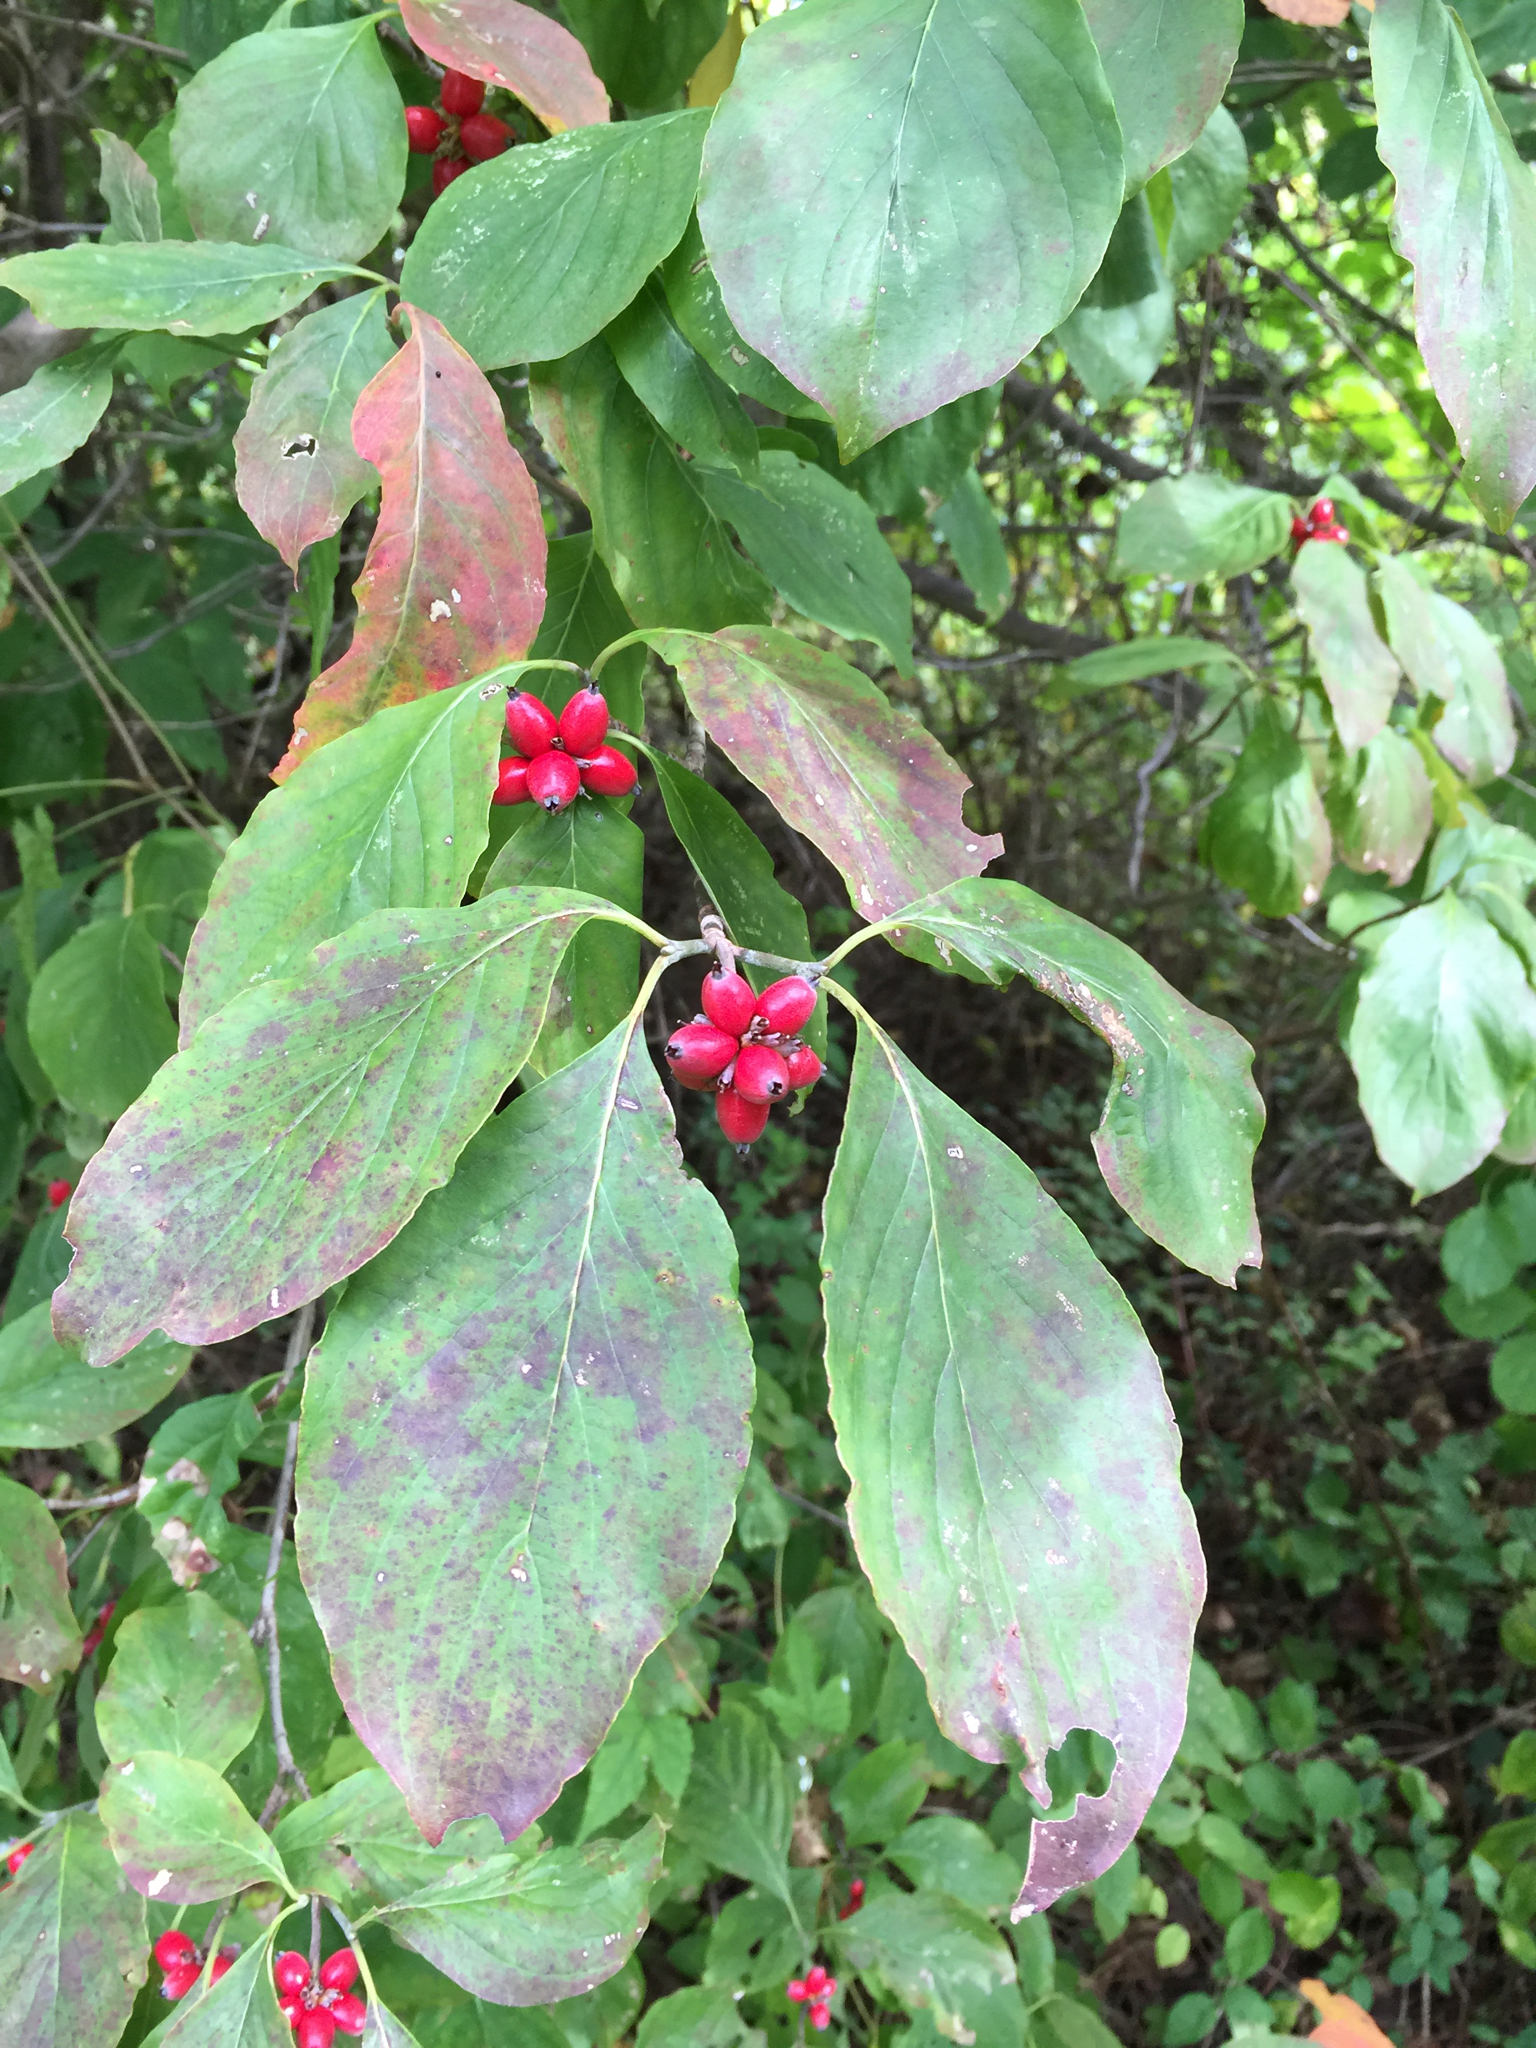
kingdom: Plantae
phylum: Tracheophyta
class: Magnoliopsida
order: Cornales
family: Cornaceae
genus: Cornus
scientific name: Cornus florida
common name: Flowering dogwood
